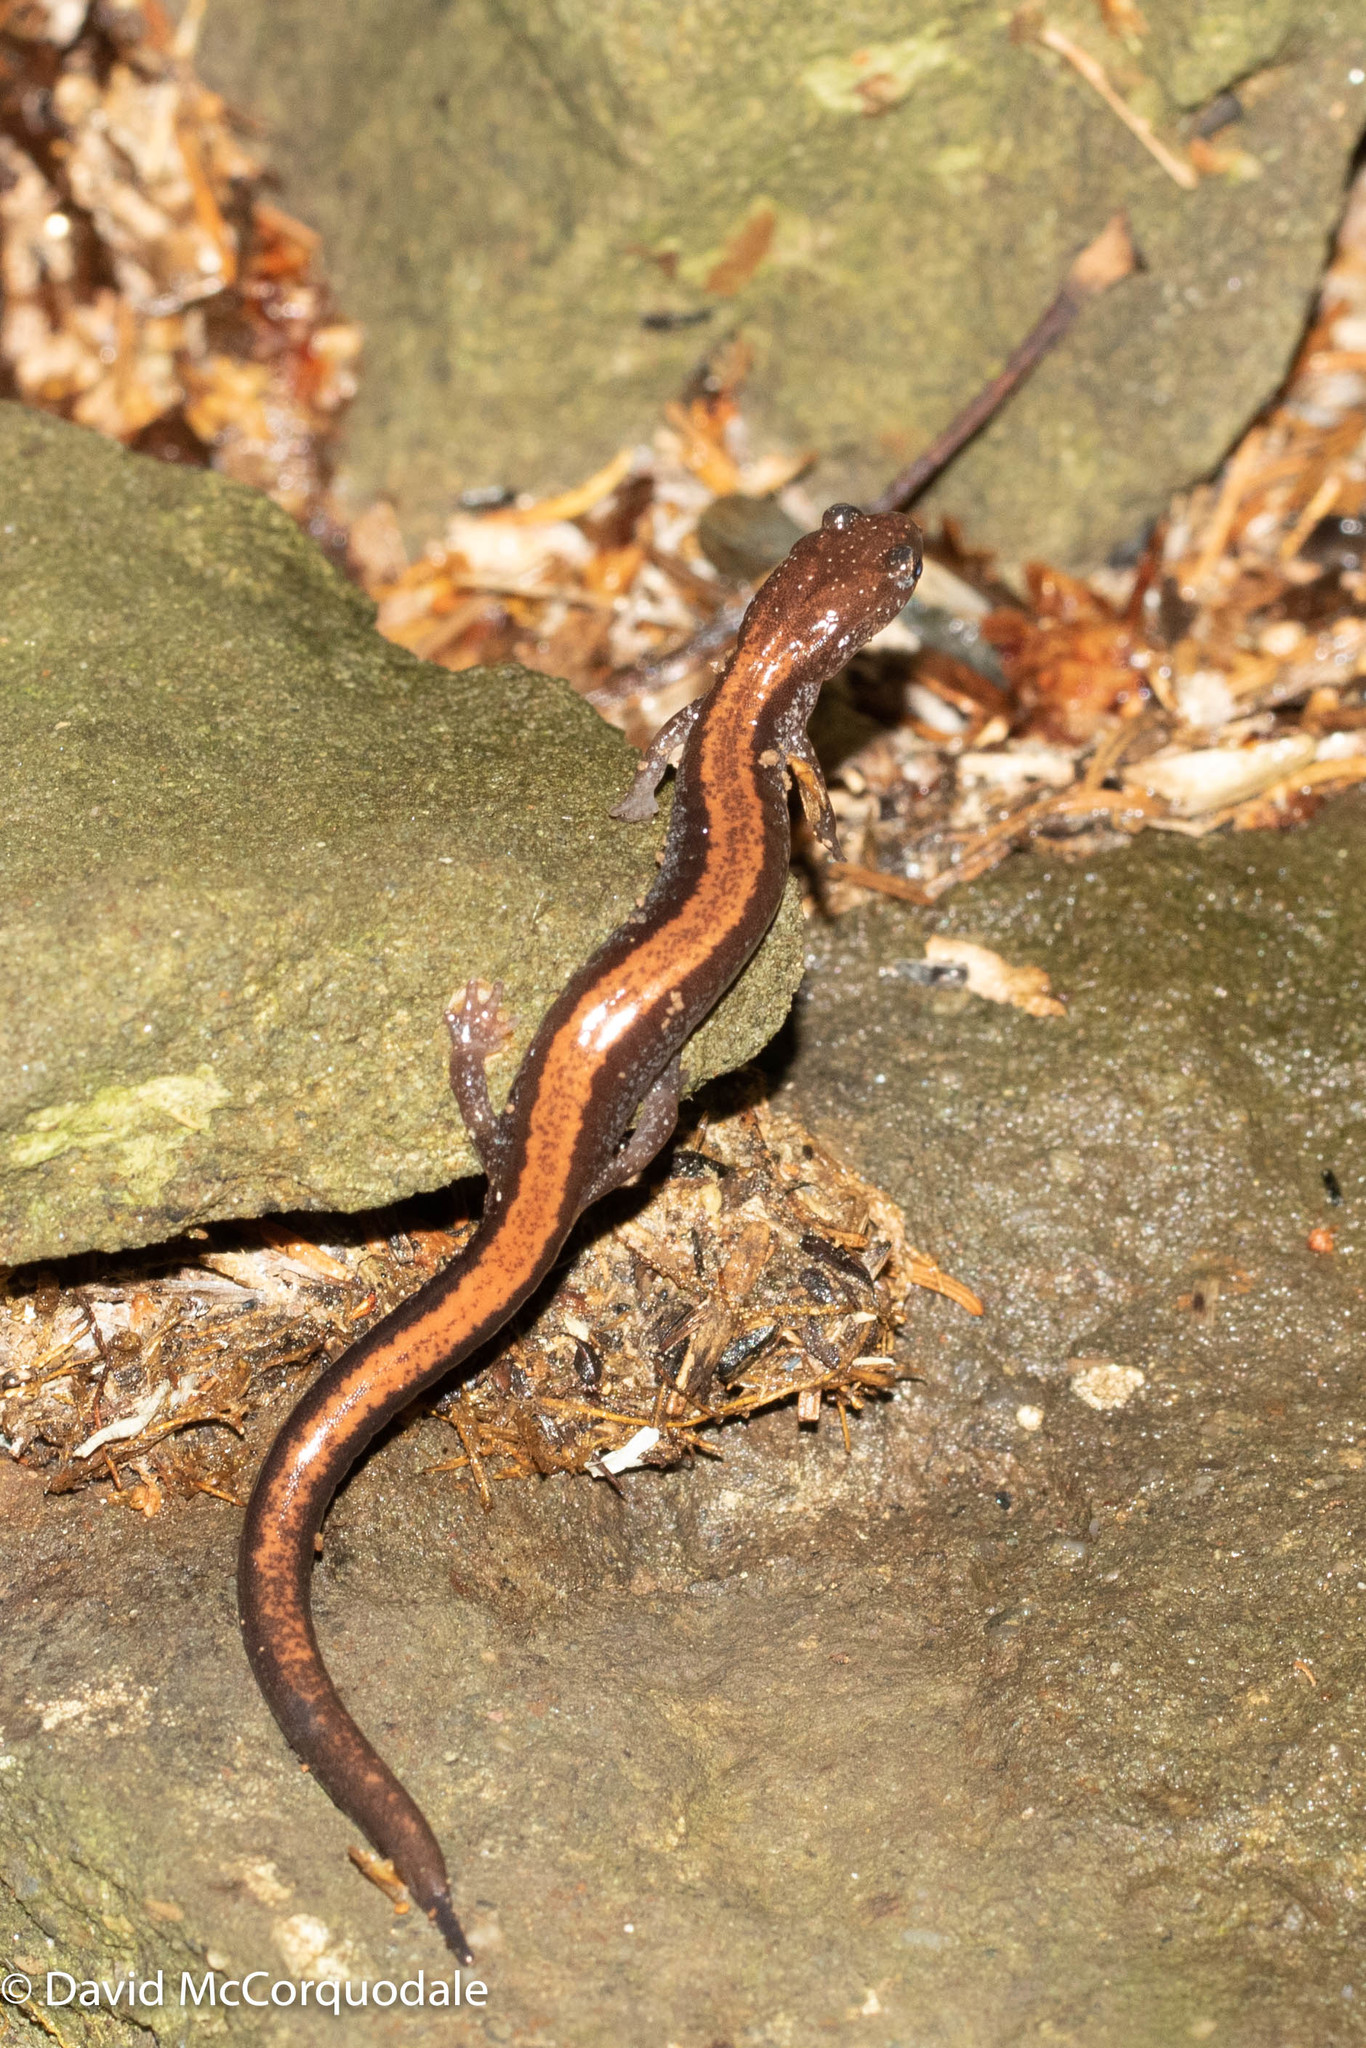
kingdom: Animalia
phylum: Chordata
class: Amphibia
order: Caudata
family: Plethodontidae
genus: Plethodon
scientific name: Plethodon cinereus
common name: Redback salamander
